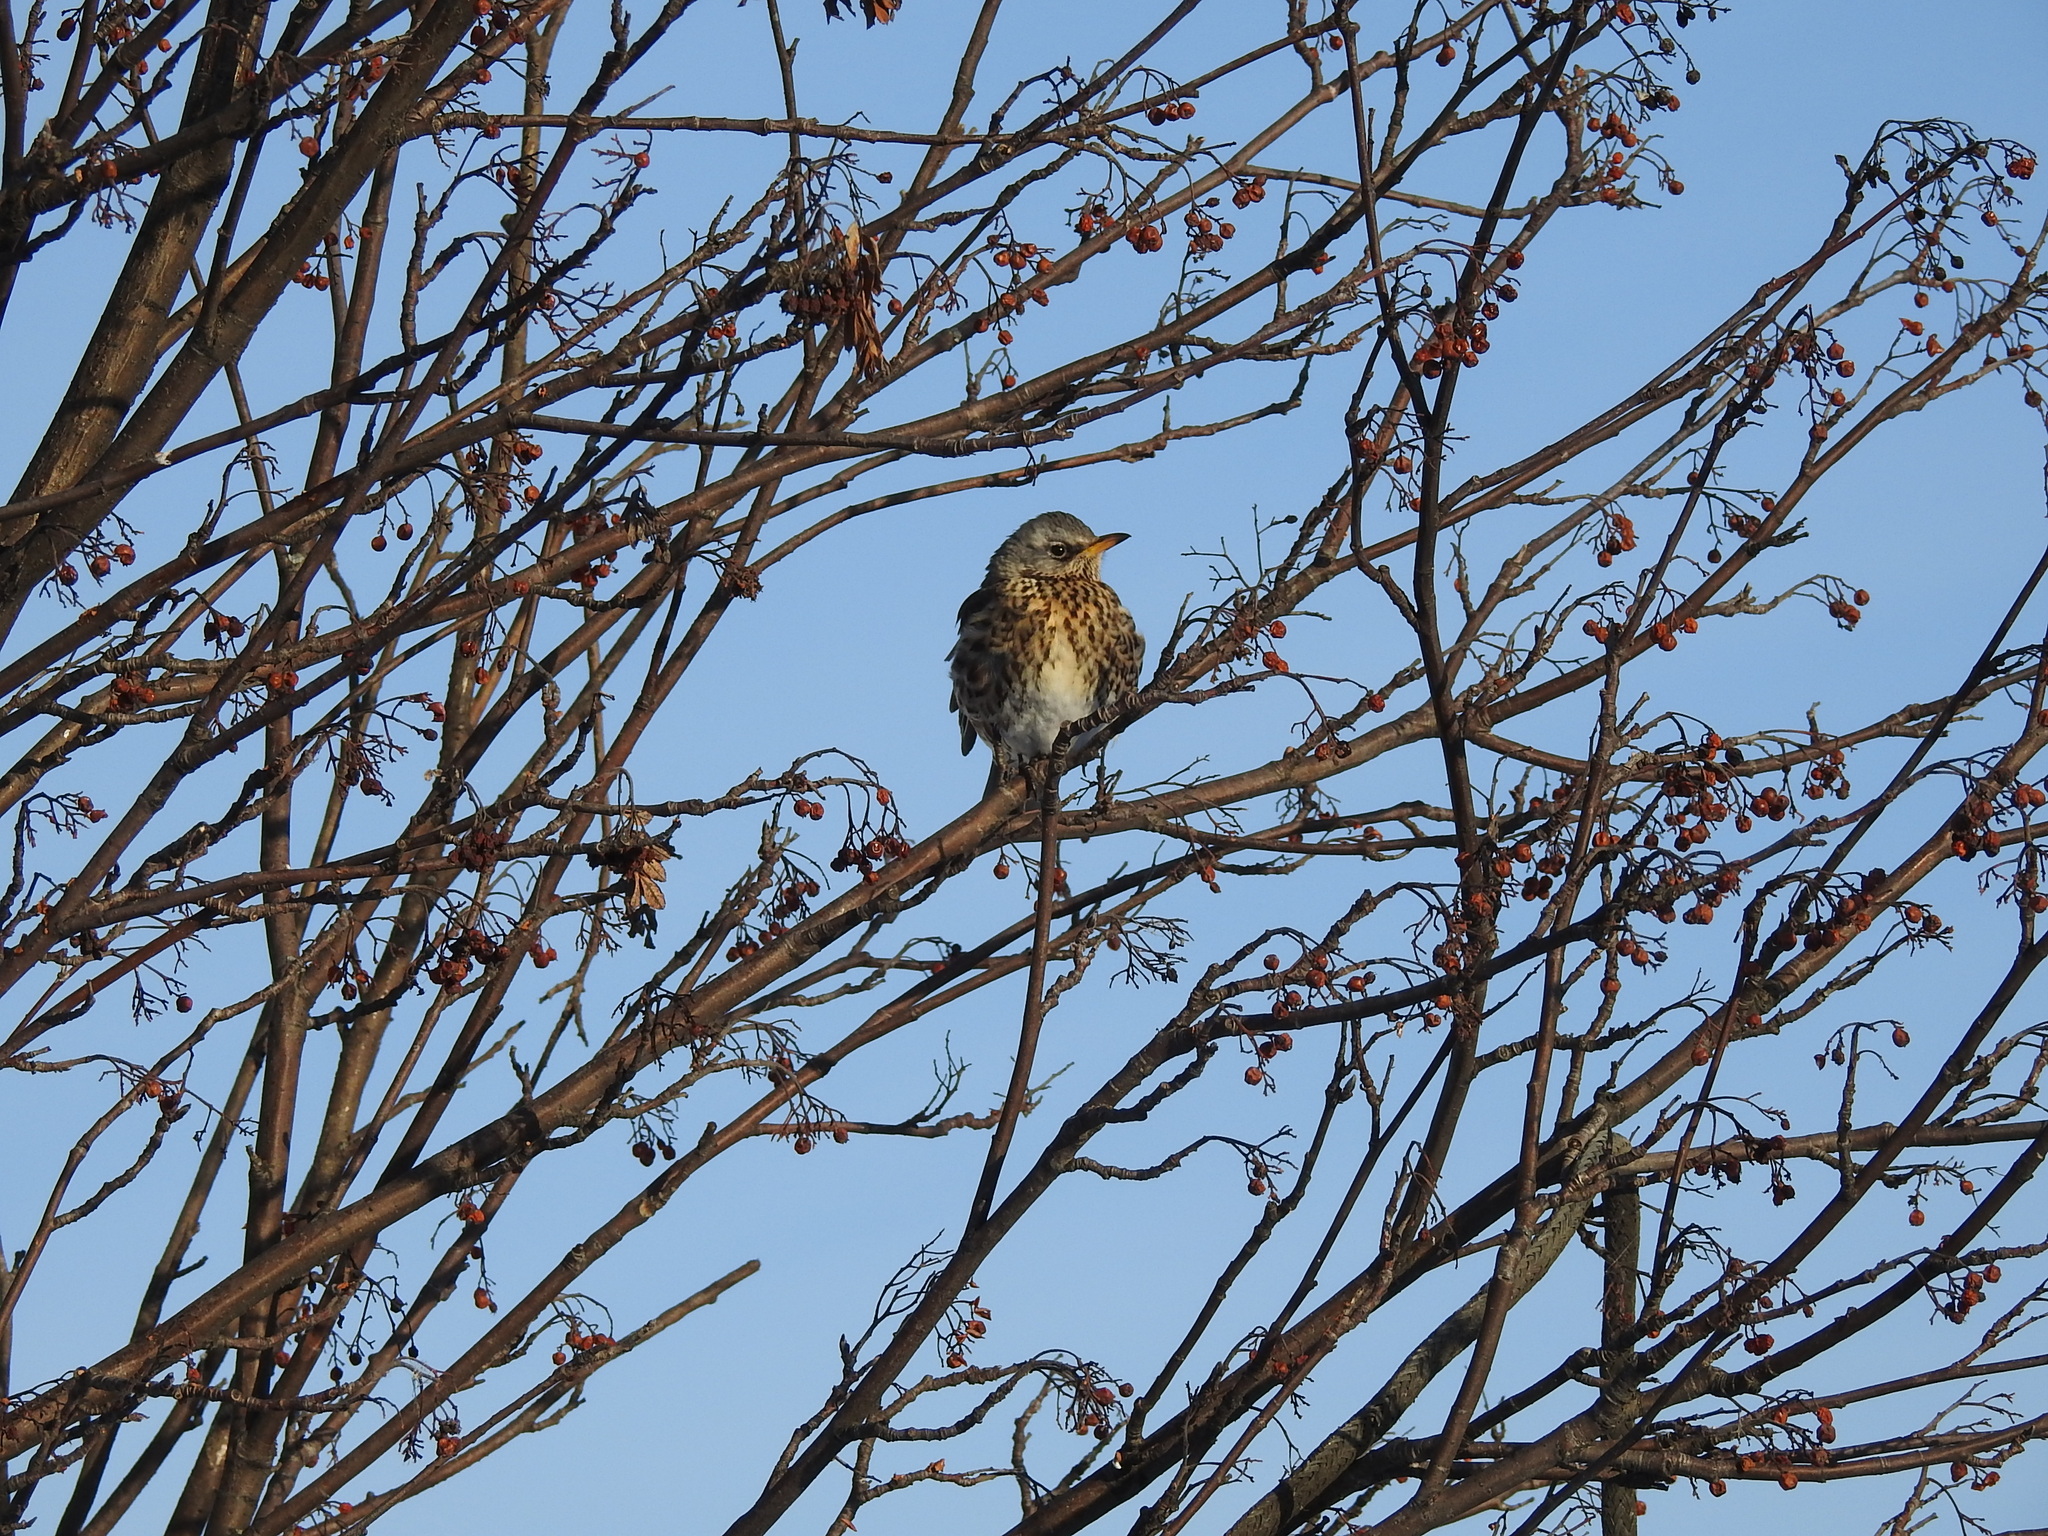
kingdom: Animalia
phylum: Chordata
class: Aves
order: Passeriformes
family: Turdidae
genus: Turdus
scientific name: Turdus pilaris
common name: Fieldfare
